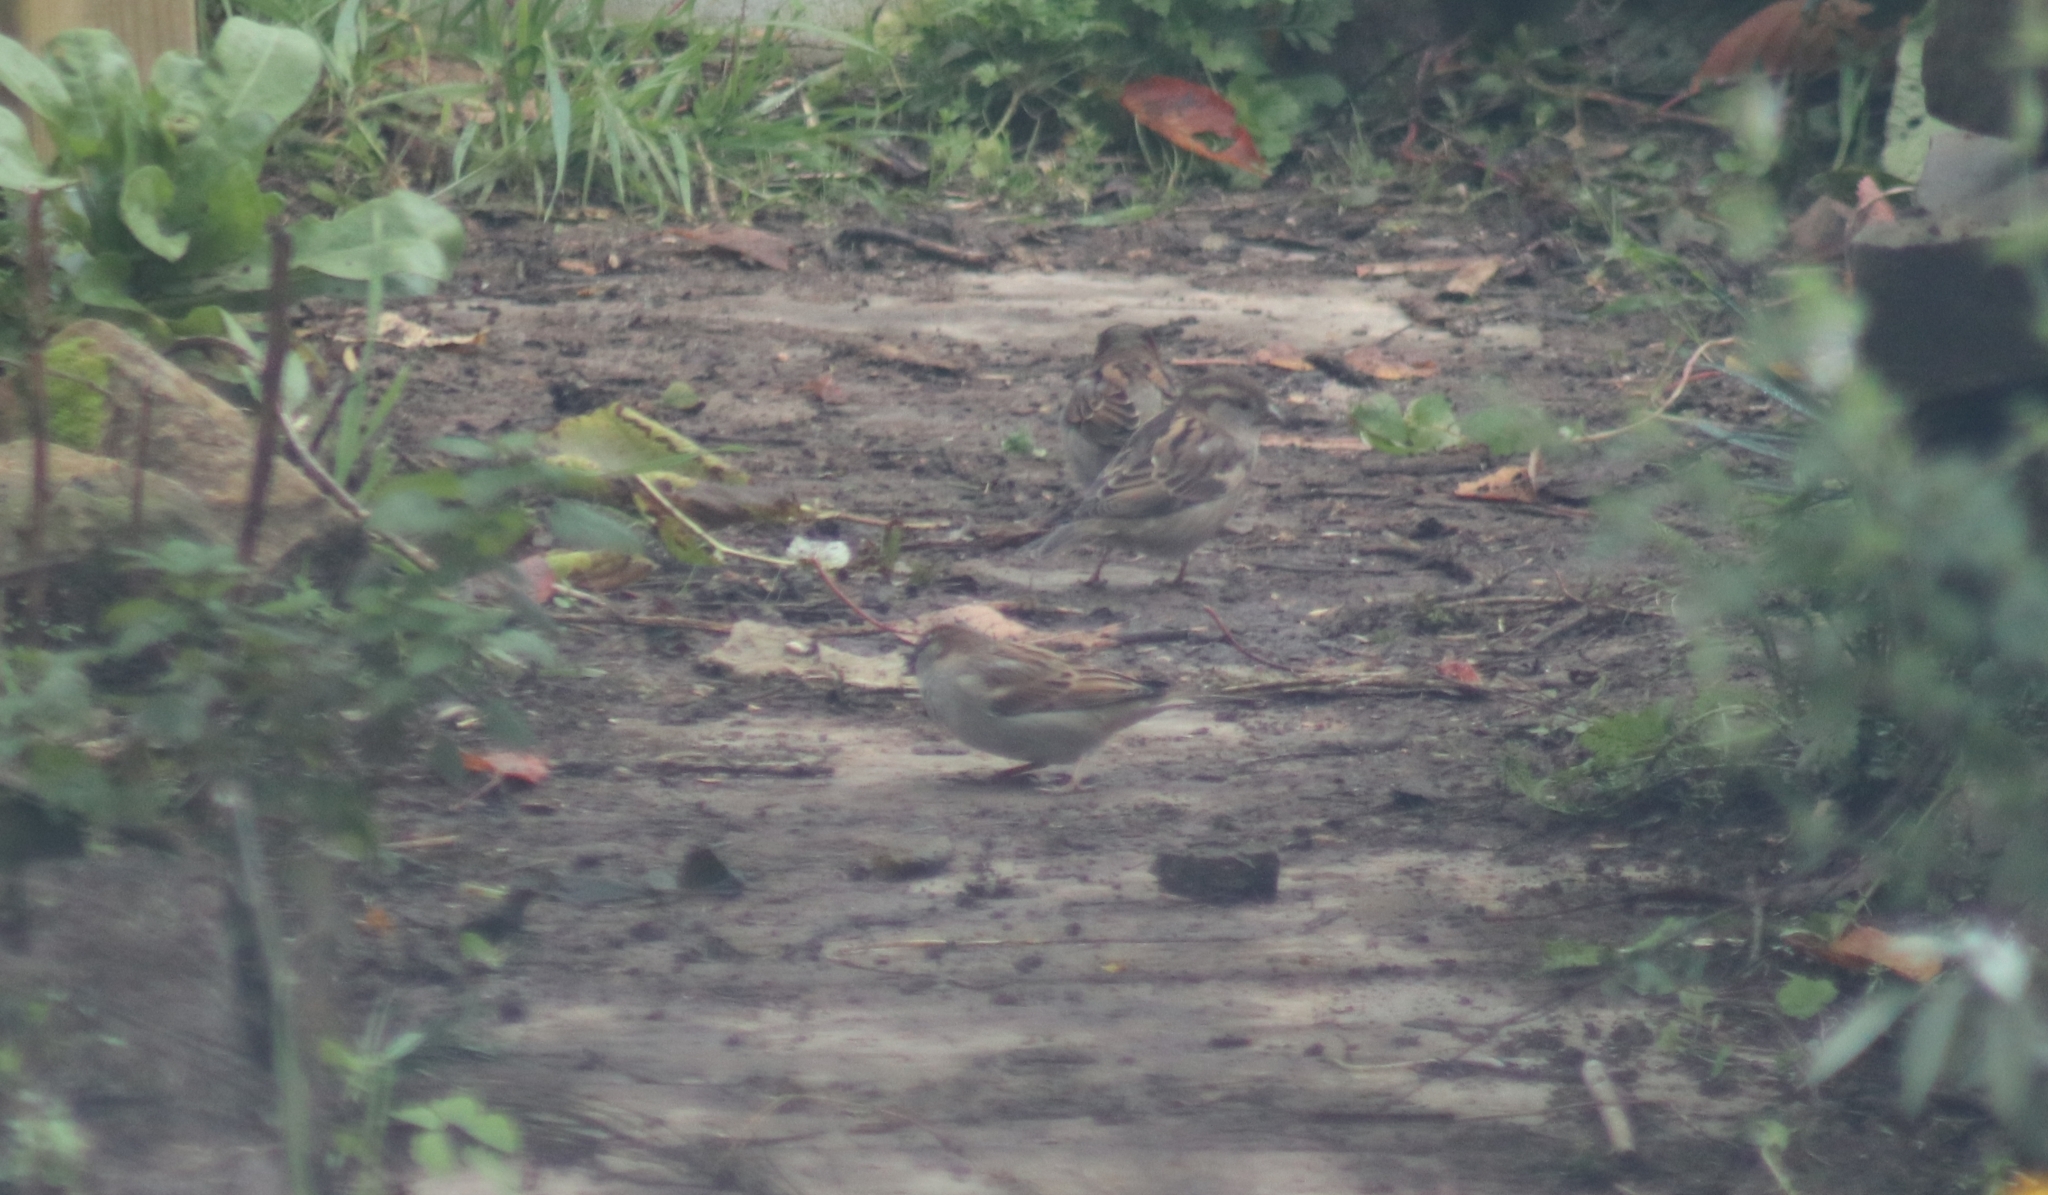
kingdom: Animalia
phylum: Chordata
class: Aves
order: Passeriformes
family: Passeridae
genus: Passer
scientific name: Passer domesticus
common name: House sparrow
